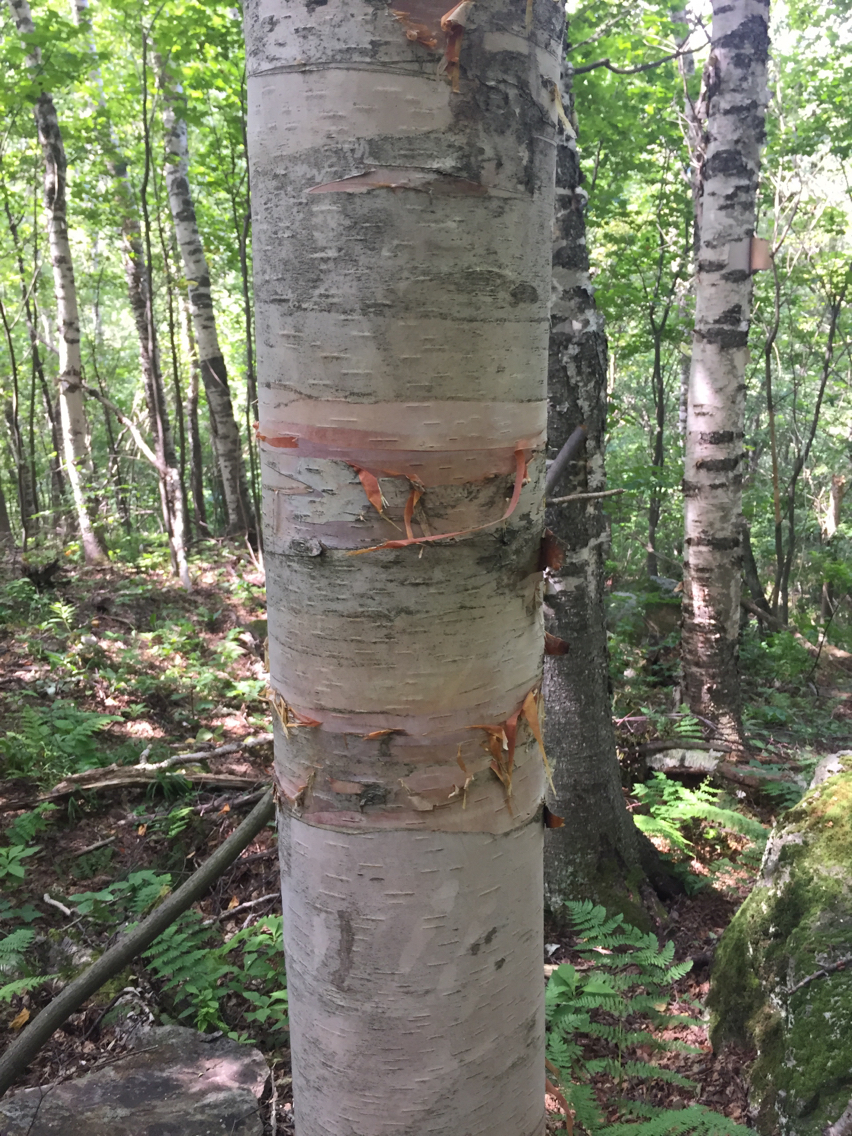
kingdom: Plantae
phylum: Tracheophyta
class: Magnoliopsida
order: Fagales
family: Betulaceae
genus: Betula
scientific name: Betula cordifolia
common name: Mountain white birch
